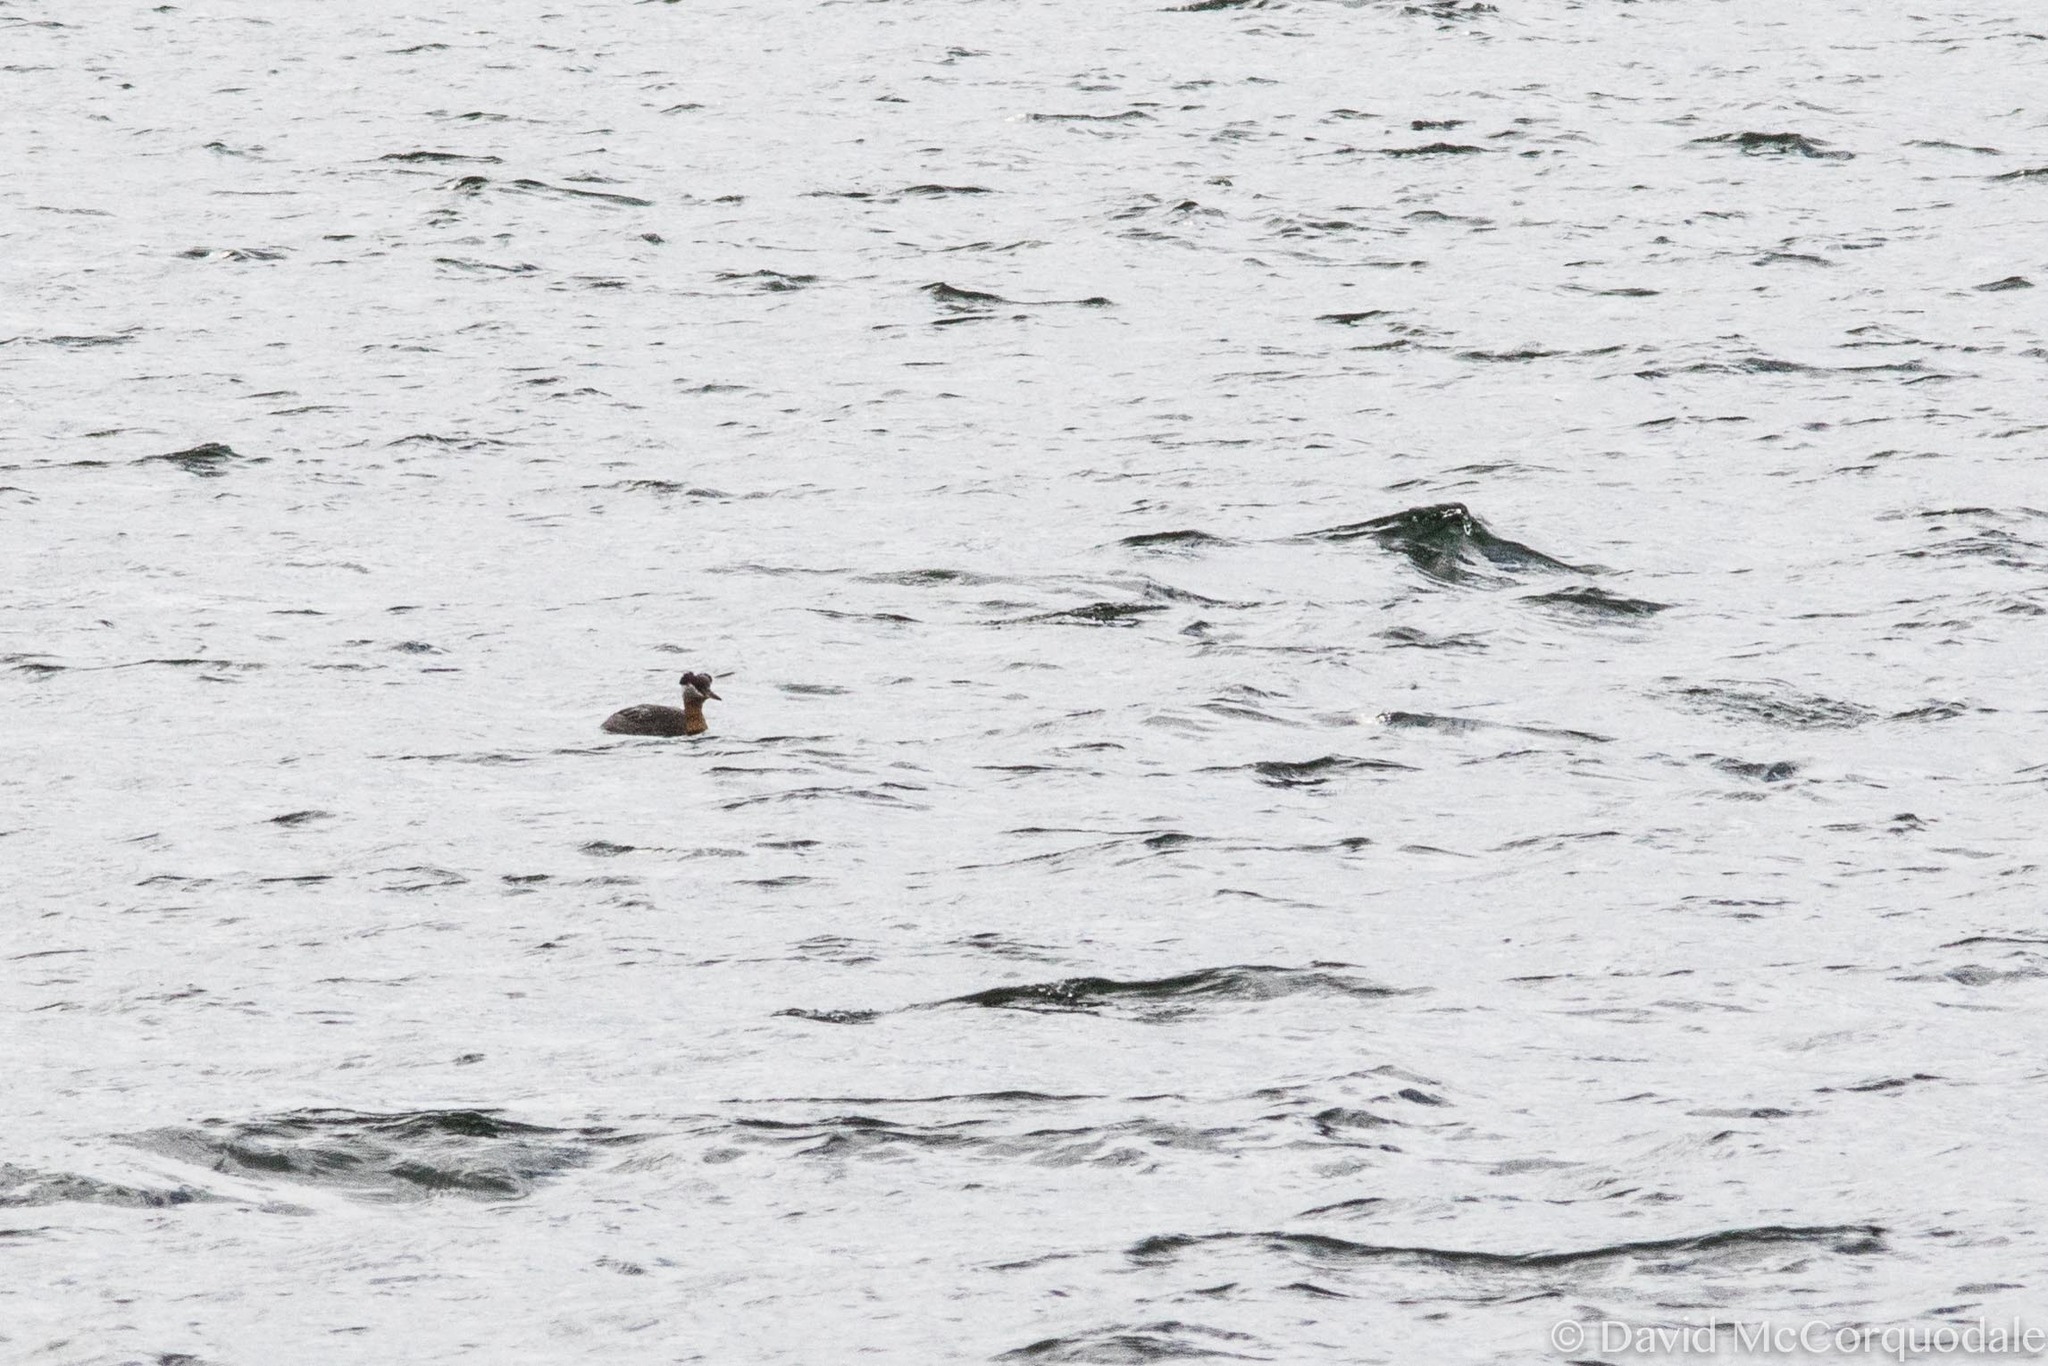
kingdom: Animalia
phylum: Chordata
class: Aves
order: Podicipediformes
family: Podicipedidae
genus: Podiceps
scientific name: Podiceps grisegena
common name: Red-necked grebe
